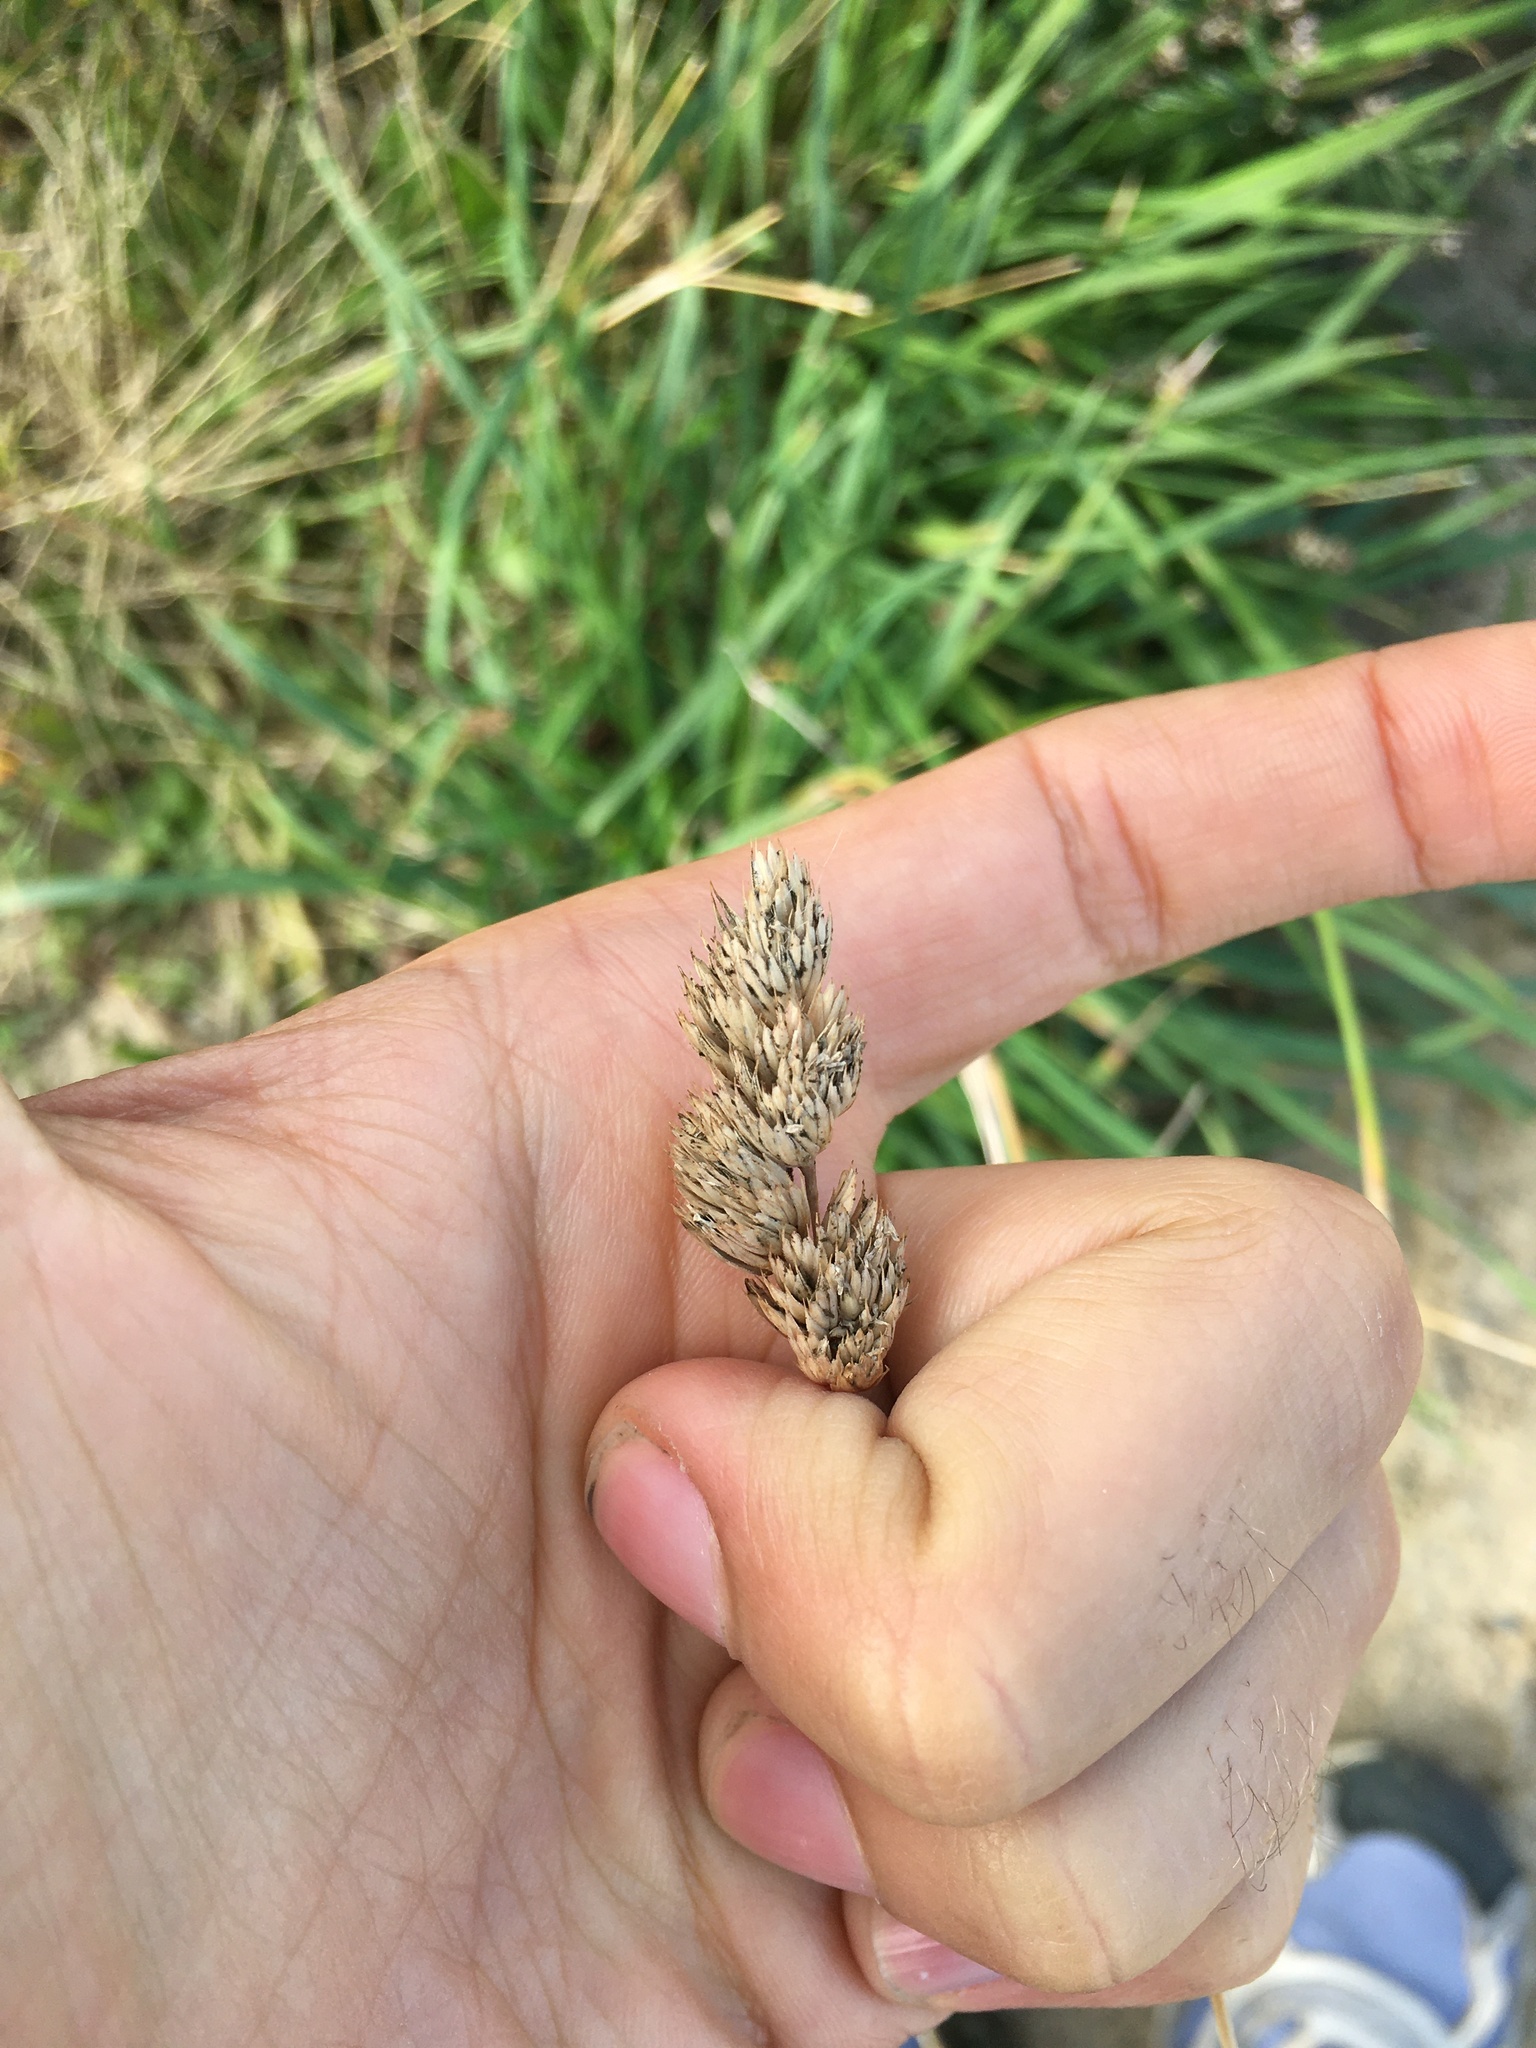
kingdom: Plantae
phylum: Tracheophyta
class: Liliopsida
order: Poales
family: Poaceae
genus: Dactylis
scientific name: Dactylis glomerata
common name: Orchardgrass
